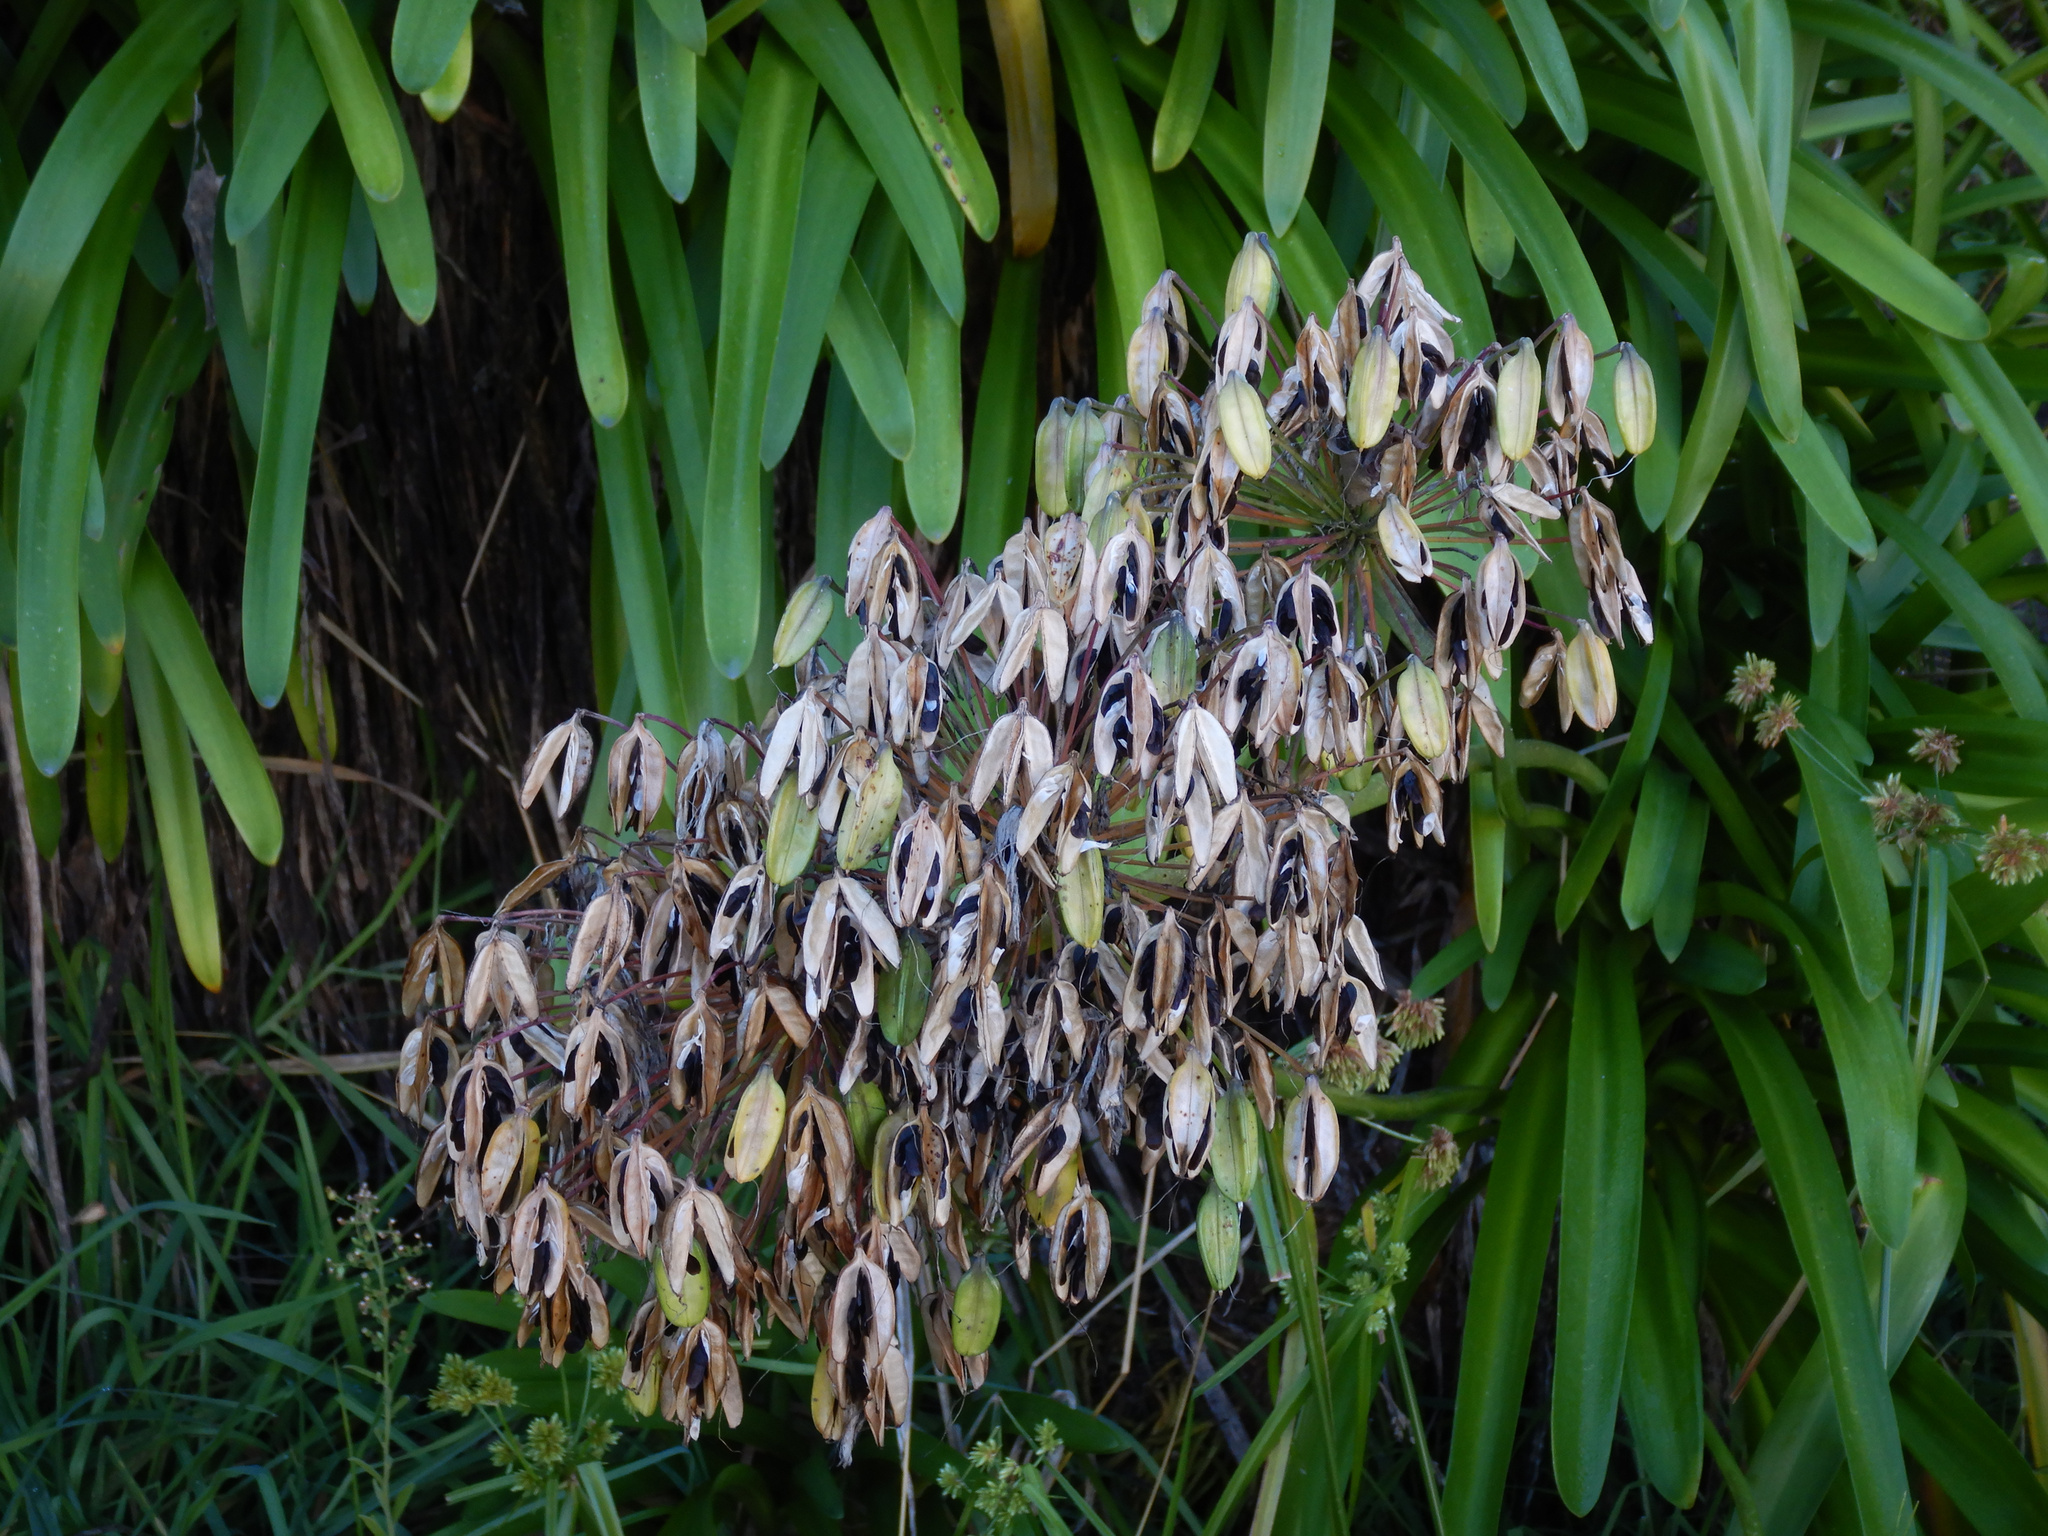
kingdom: Plantae
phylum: Tracheophyta
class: Liliopsida
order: Asparagales
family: Amaryllidaceae
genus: Agapanthus
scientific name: Agapanthus praecox
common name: African-lily
